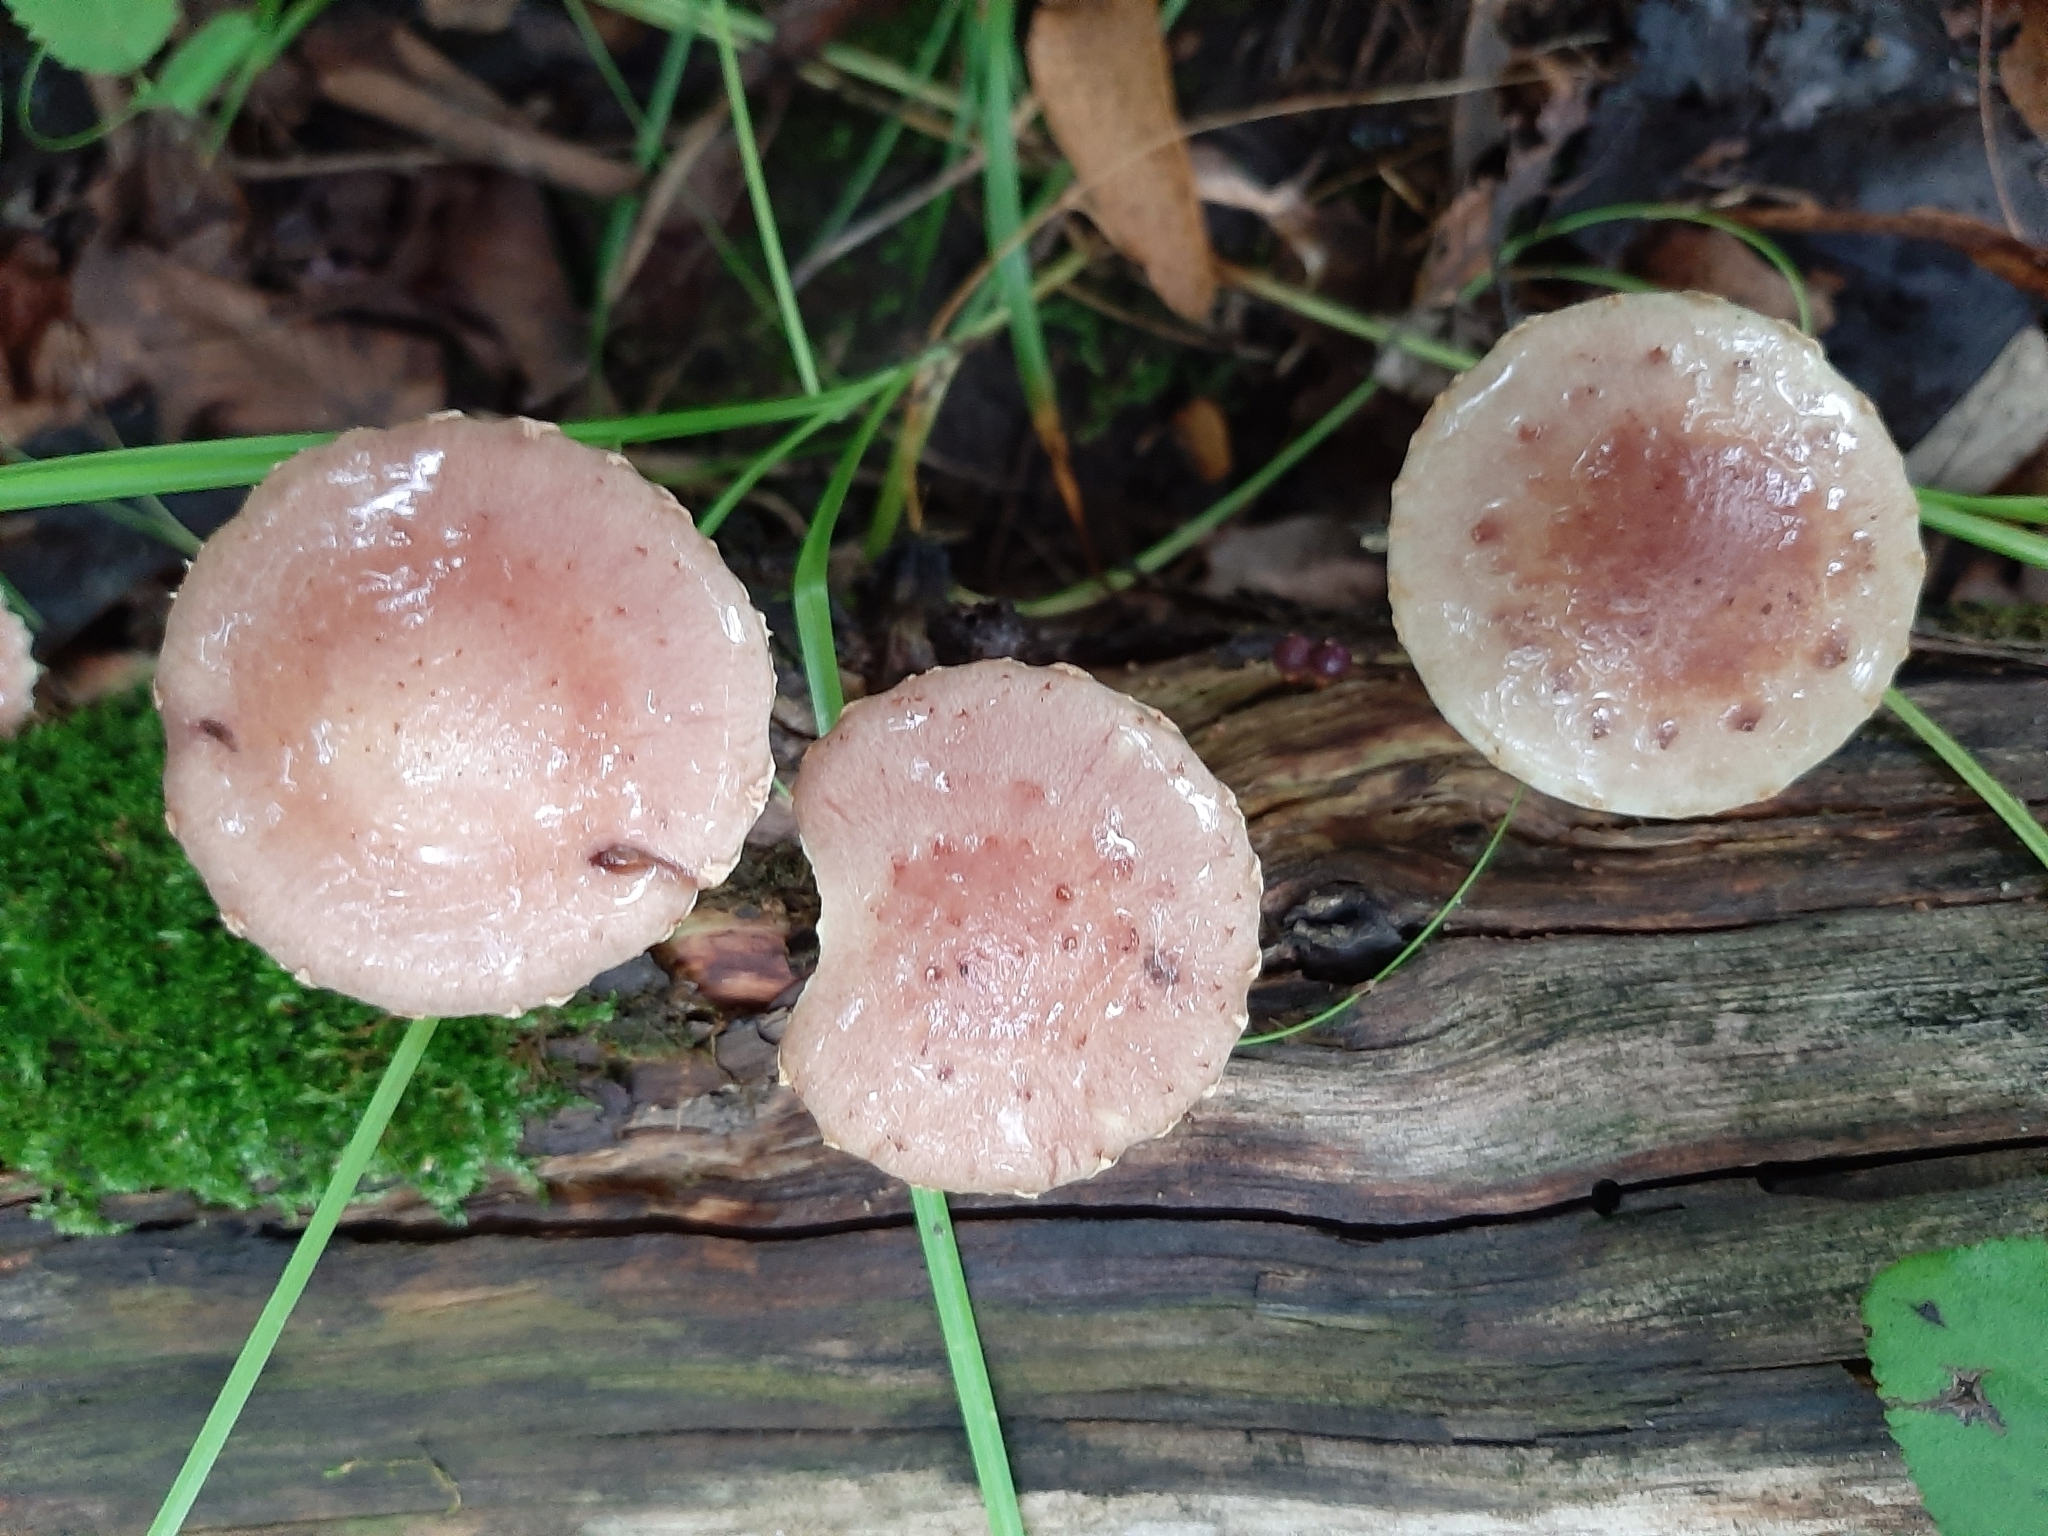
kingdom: Fungi
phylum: Basidiomycota
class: Agaricomycetes
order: Agaricales
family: Strophariaceae
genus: Pholiota
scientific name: Pholiota polychroa
